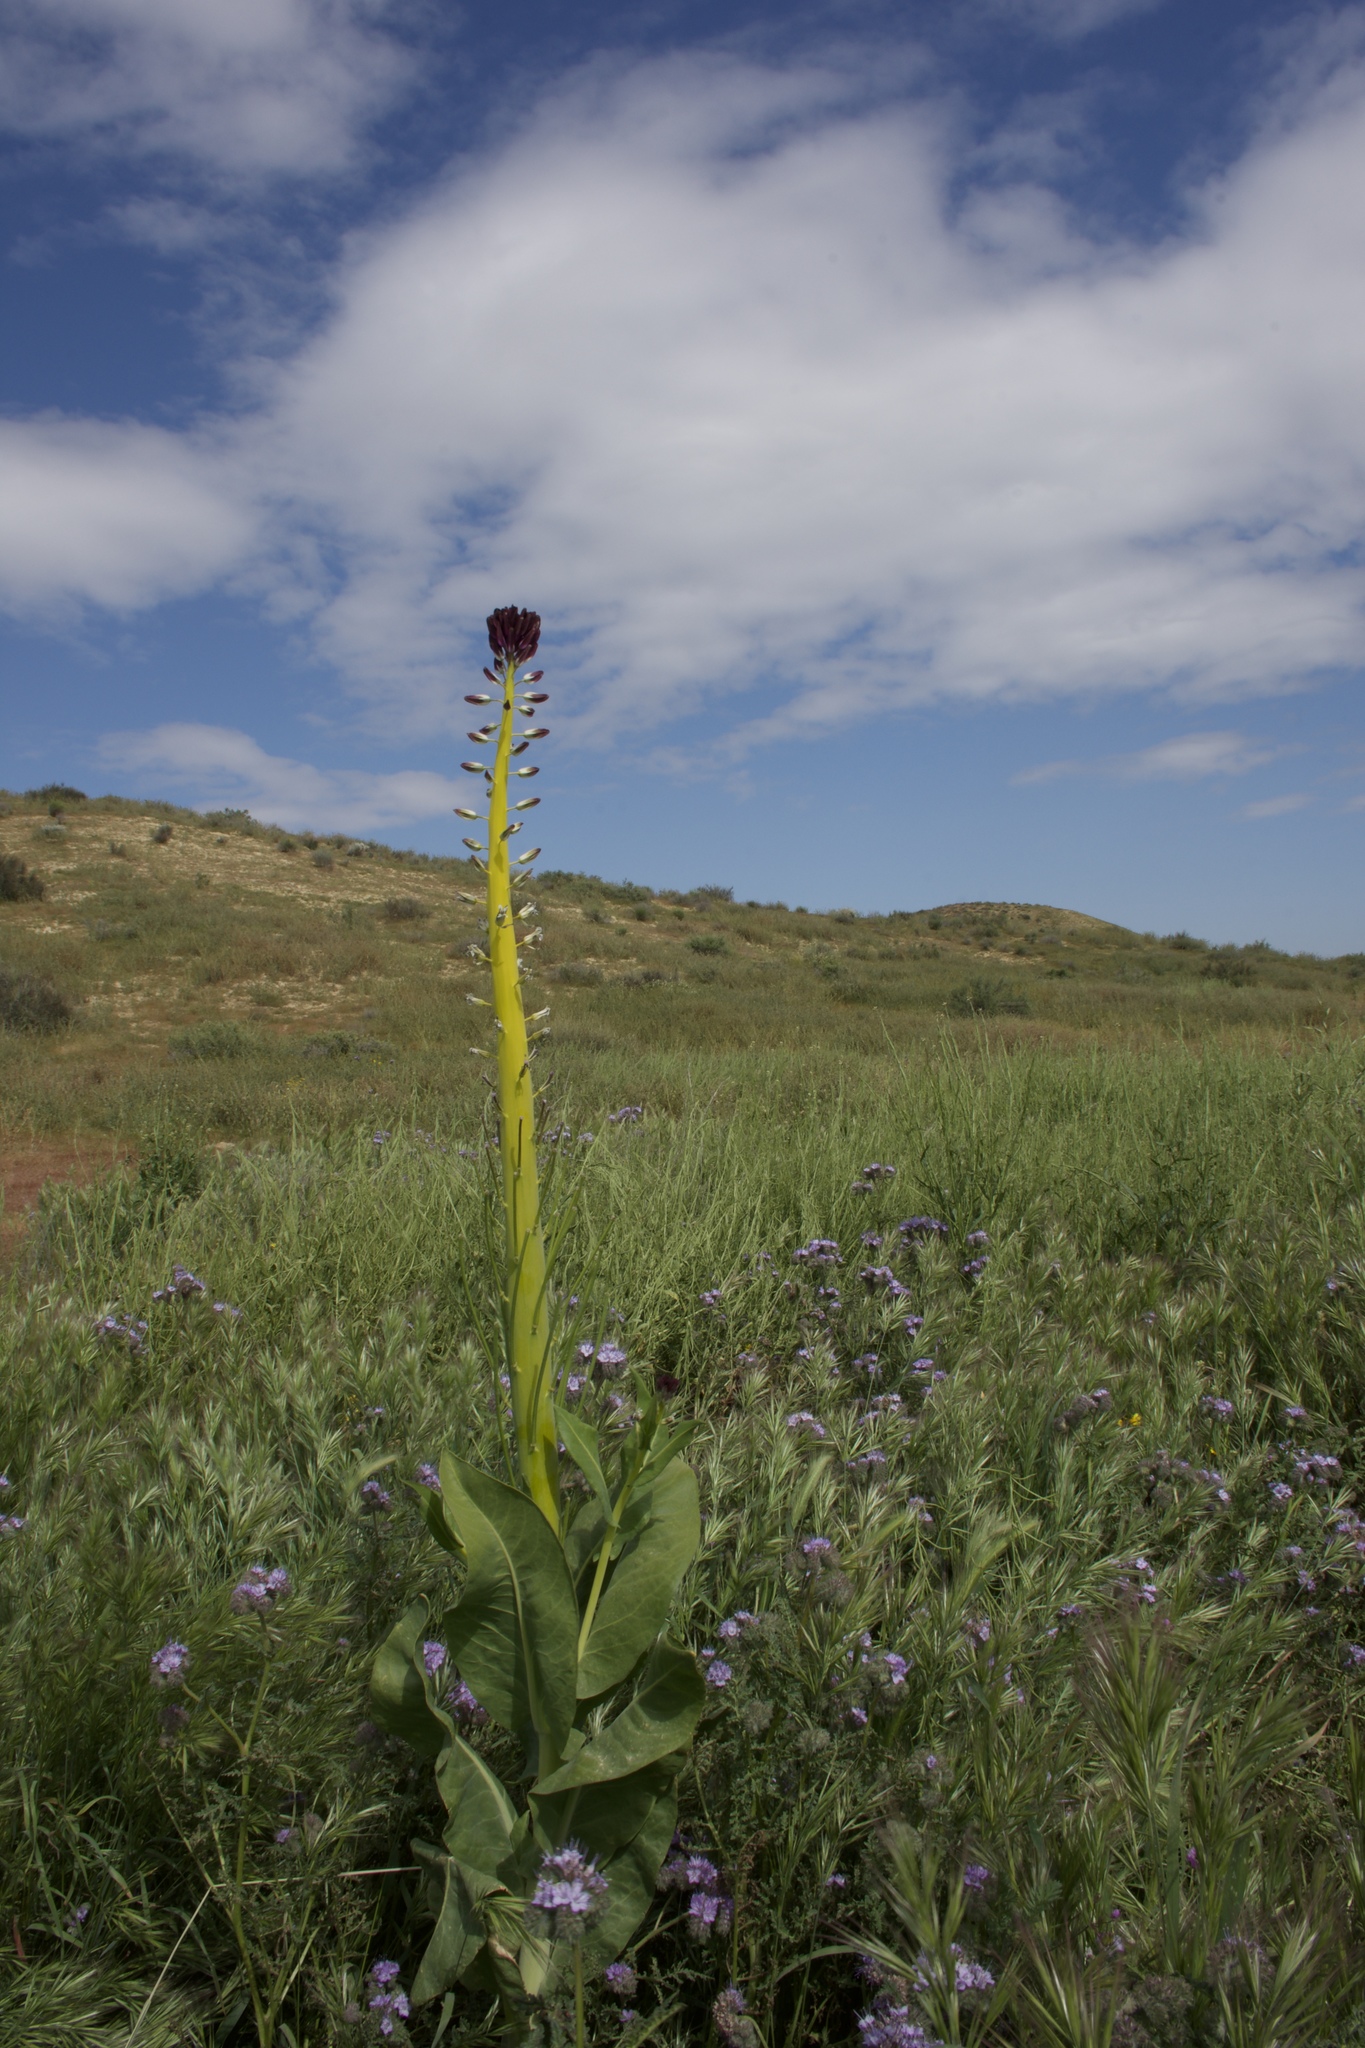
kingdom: Plantae
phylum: Tracheophyta
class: Magnoliopsida
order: Brassicales
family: Brassicaceae
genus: Streptanthus
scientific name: Streptanthus inflatus
